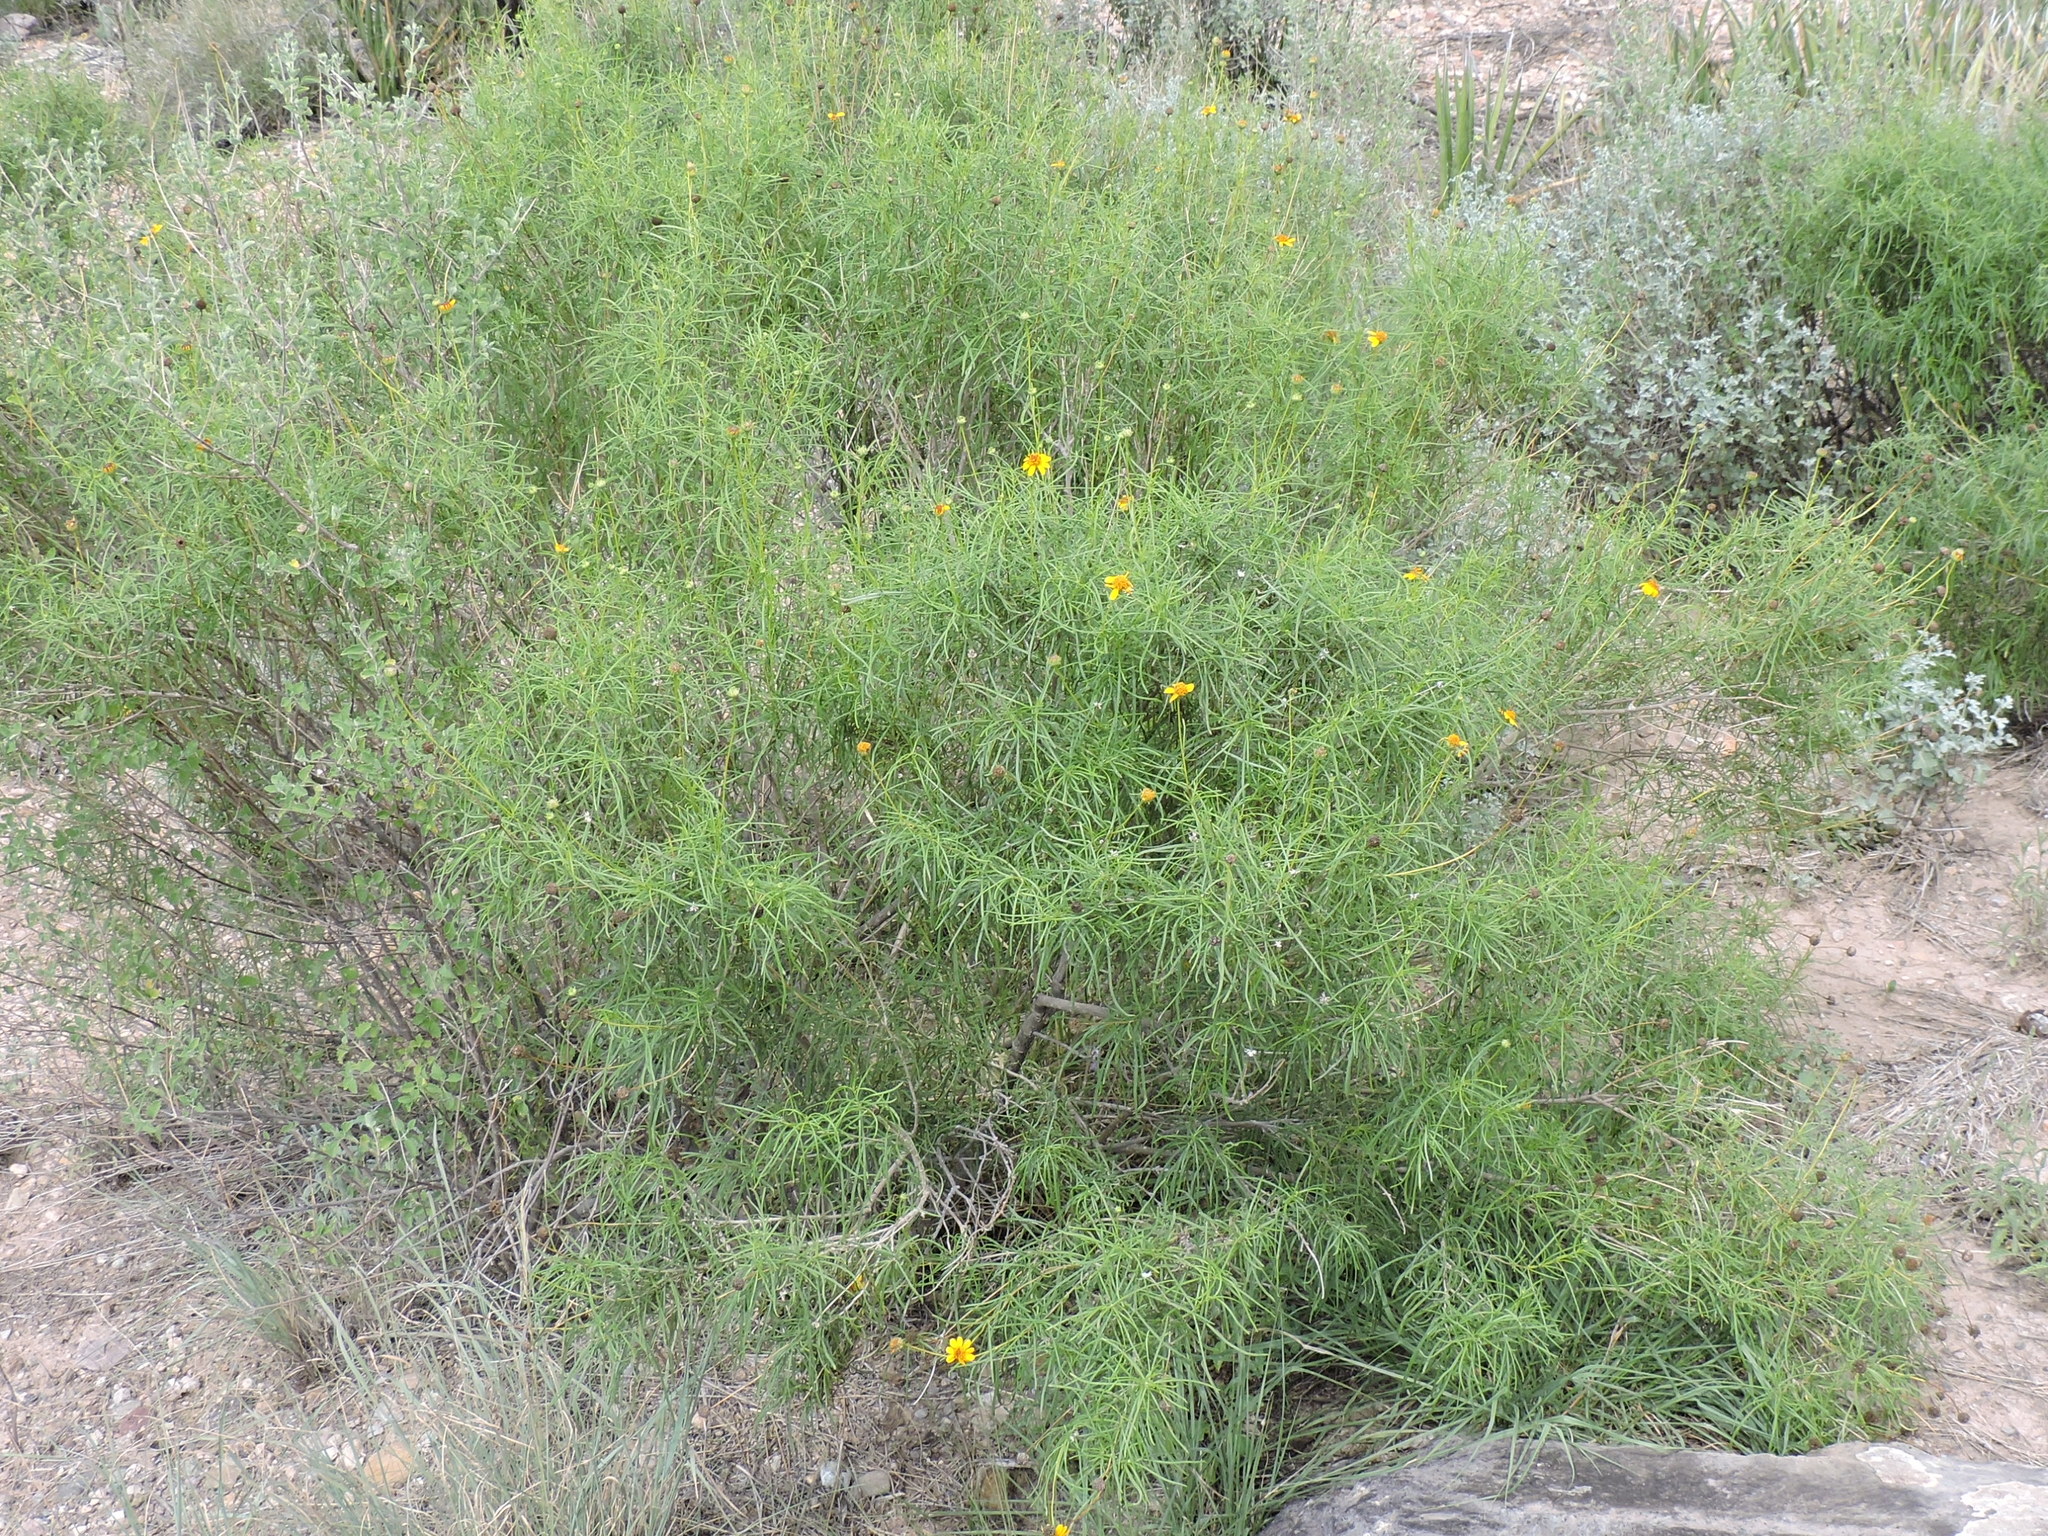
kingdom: Plantae
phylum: Tracheophyta
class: Magnoliopsida
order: Asterales
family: Asteraceae
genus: Sidneya
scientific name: Sidneya tenuifolia
